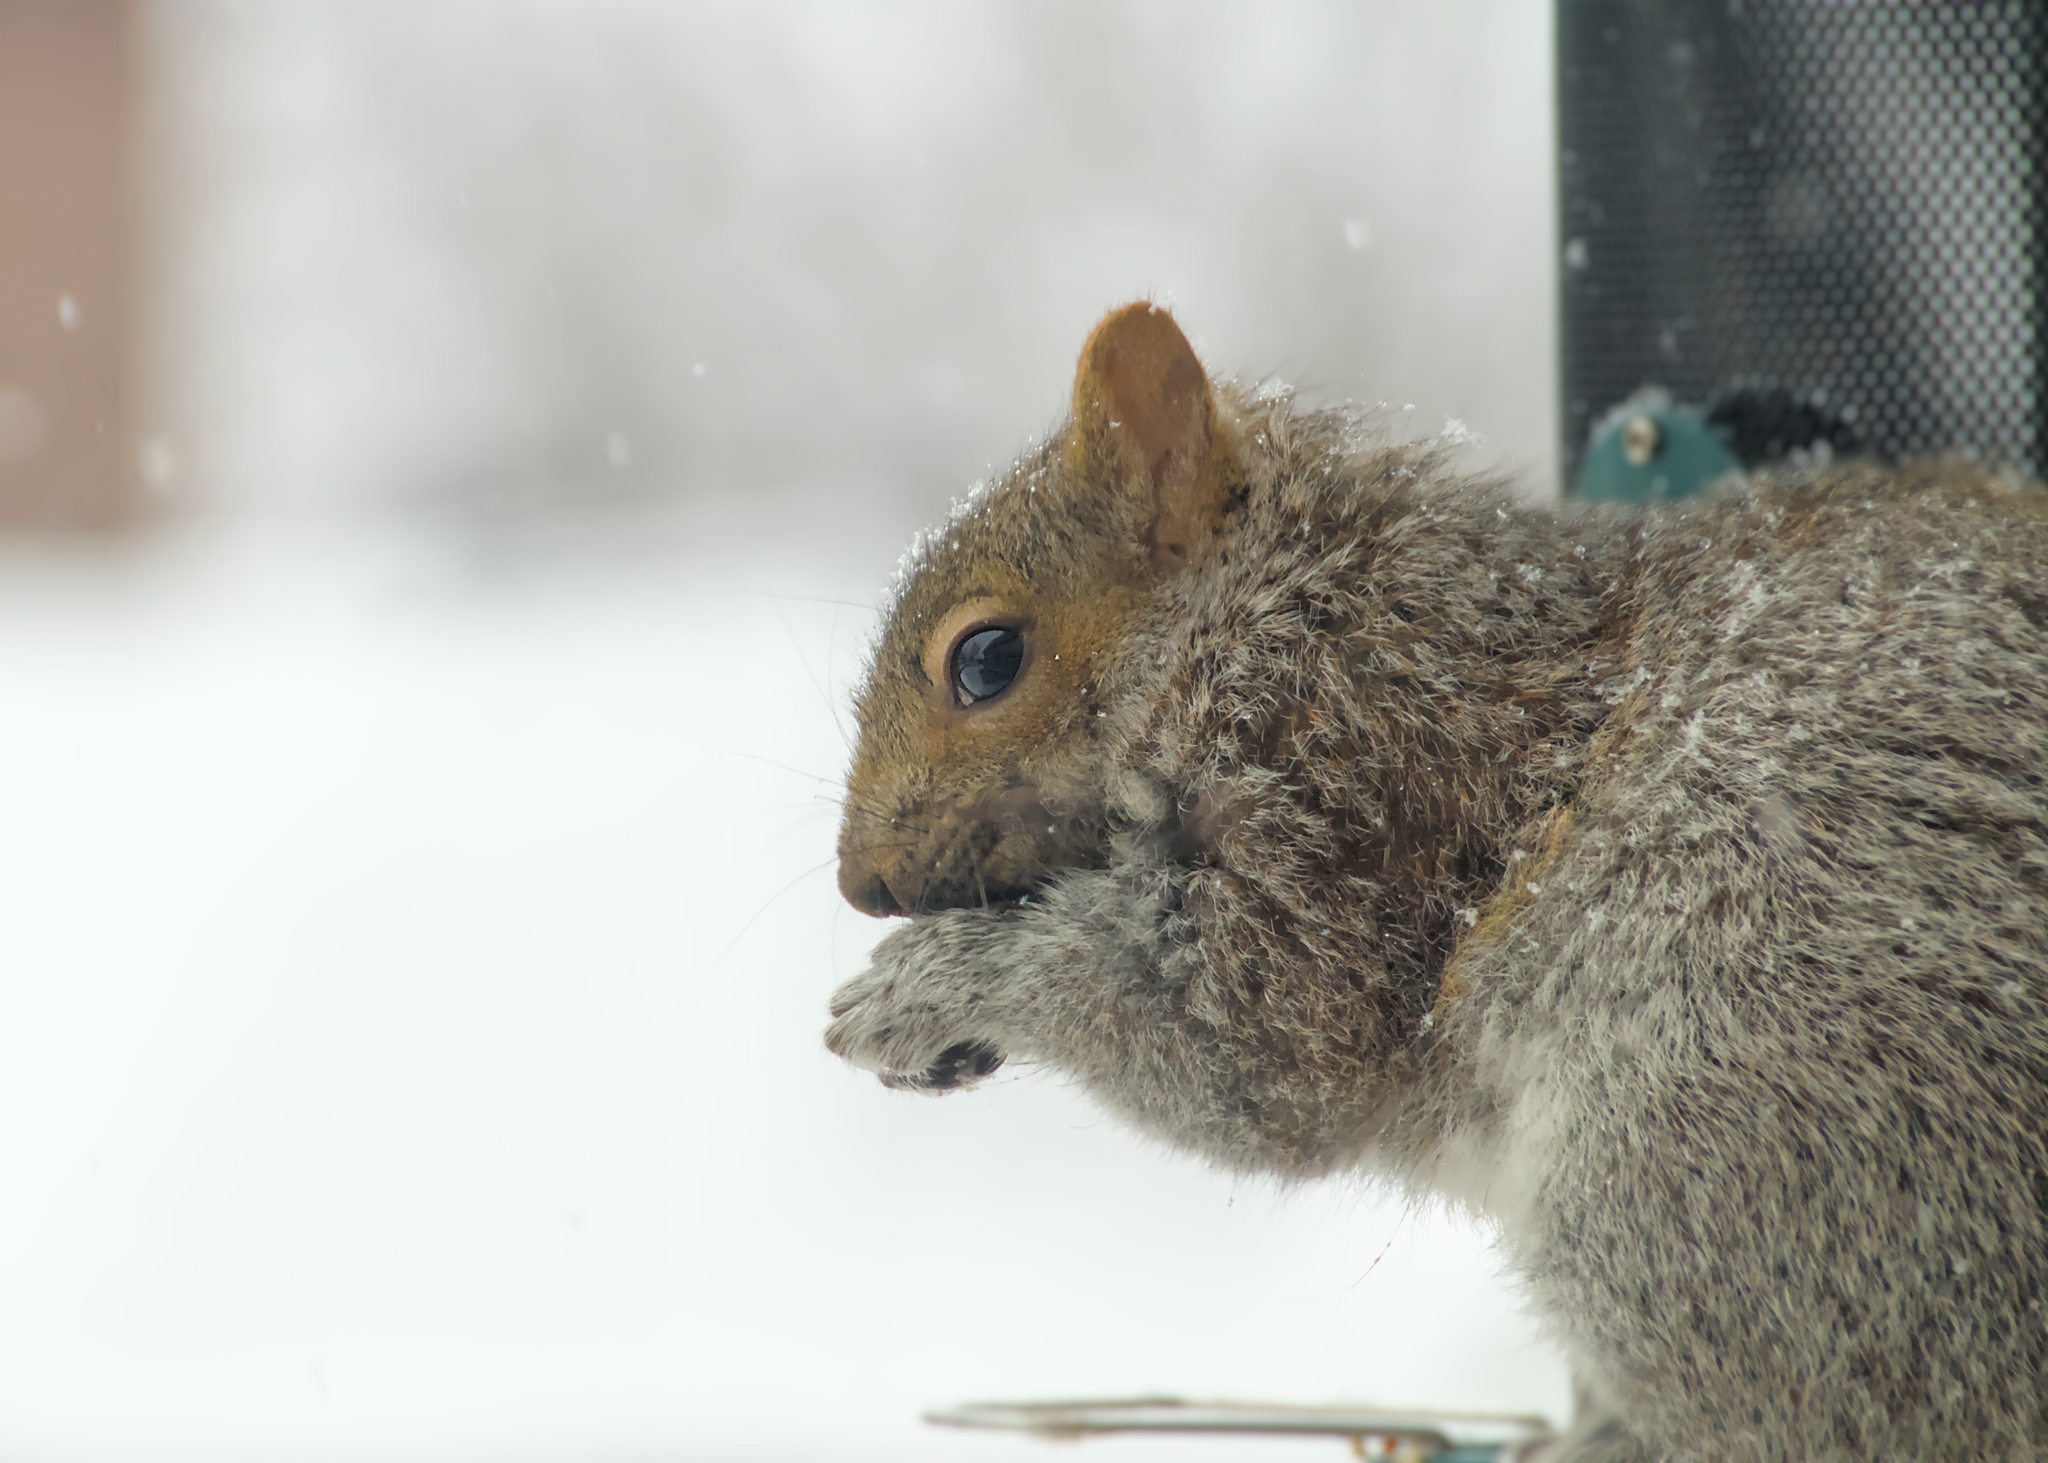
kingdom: Animalia
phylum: Chordata
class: Mammalia
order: Rodentia
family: Sciuridae
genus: Sciurus
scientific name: Sciurus carolinensis
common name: Eastern gray squirrel
